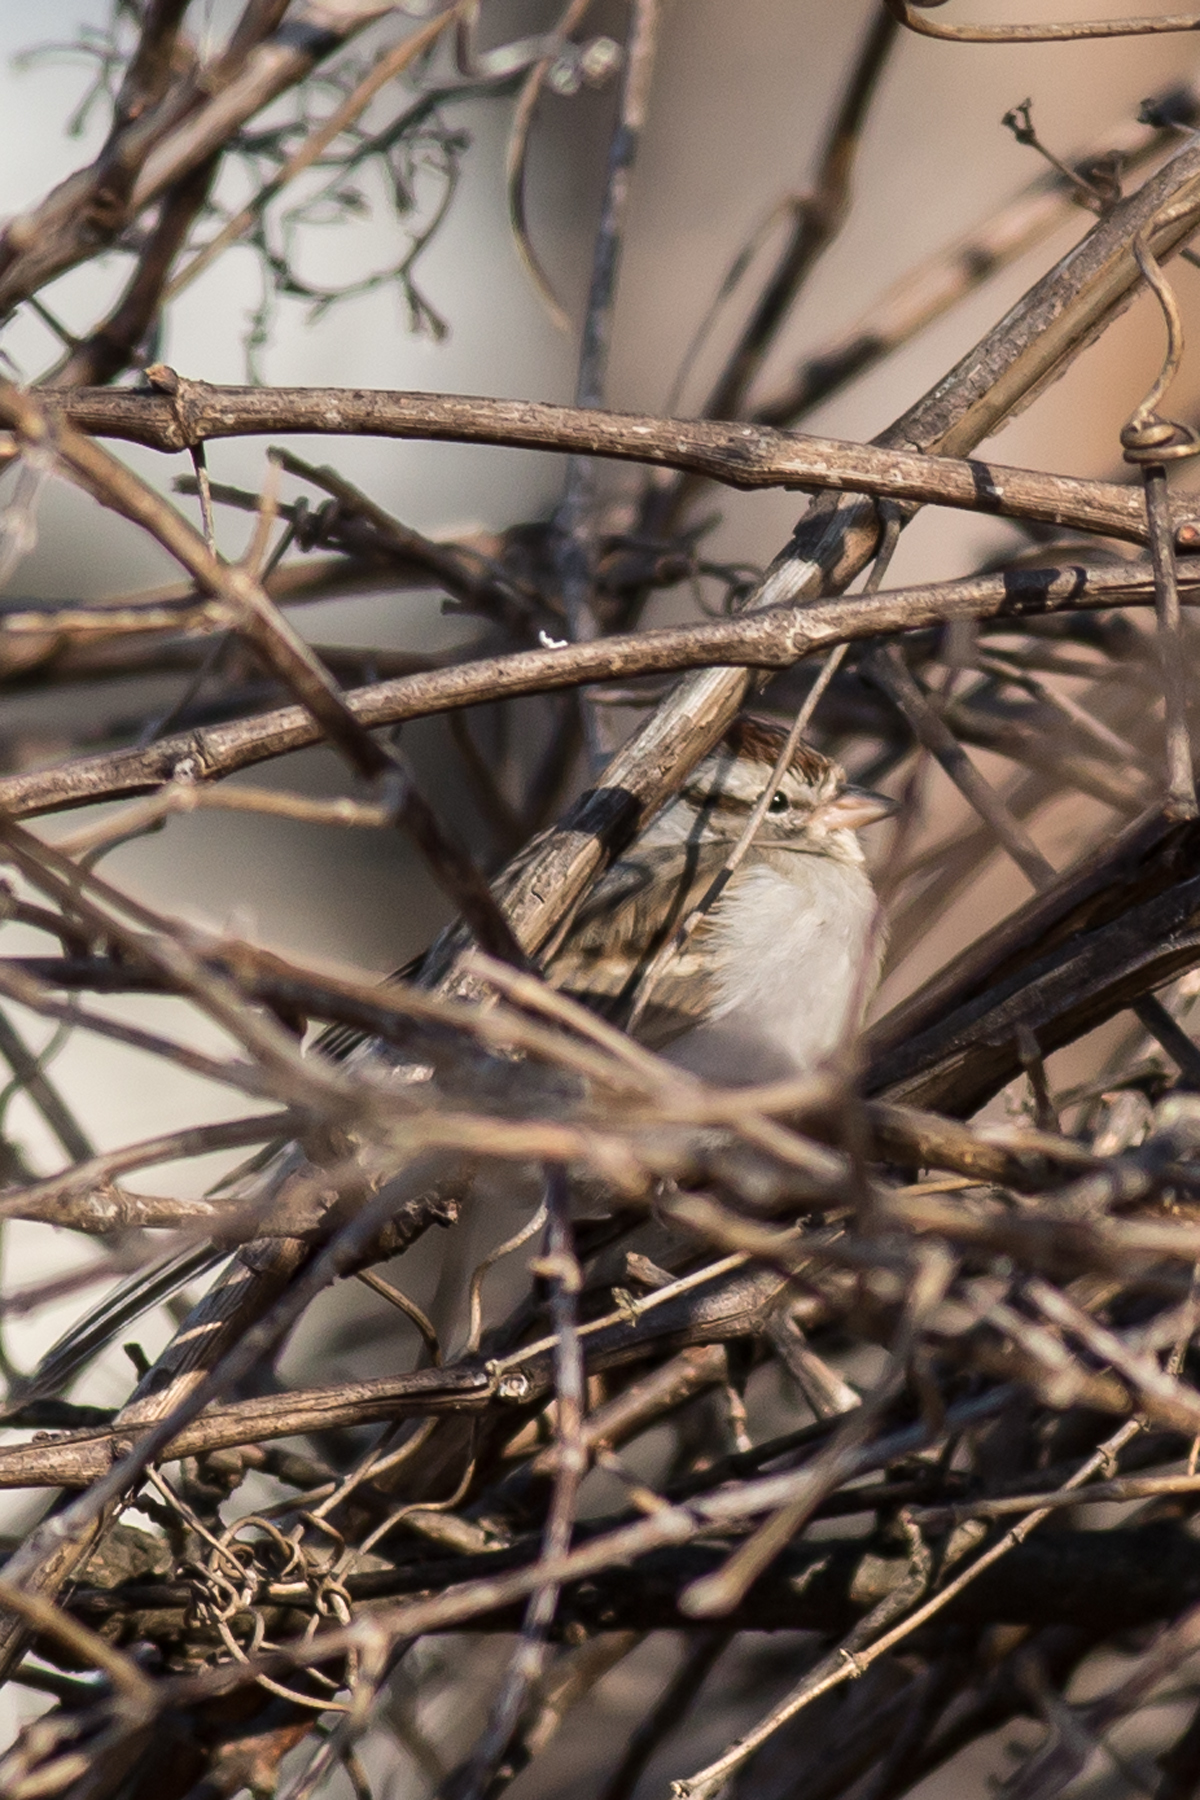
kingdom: Animalia
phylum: Chordata
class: Aves
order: Passeriformes
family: Passerellidae
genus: Spizella
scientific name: Spizella passerina
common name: Chipping sparrow
